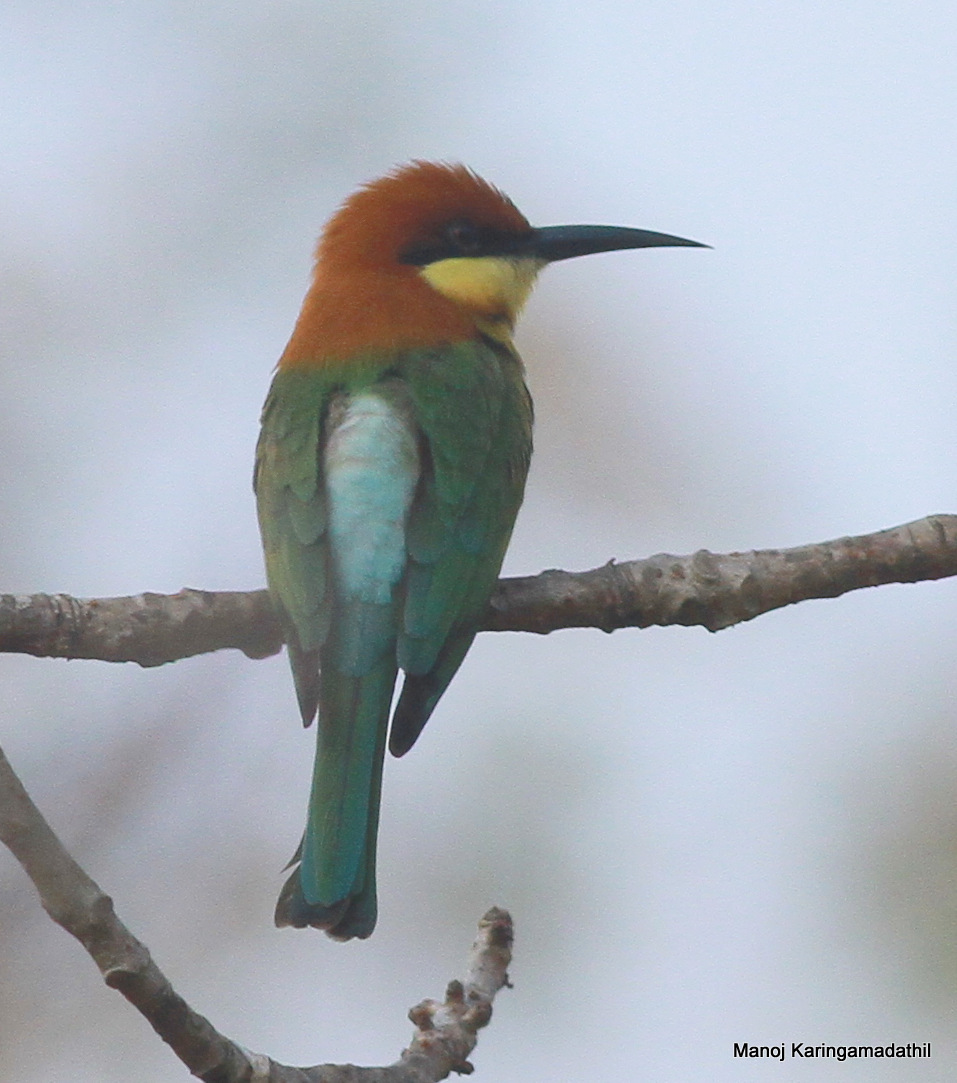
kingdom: Animalia
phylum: Chordata
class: Aves
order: Coraciiformes
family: Meropidae
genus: Merops
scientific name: Merops leschenaulti
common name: Chestnut-headed bee-eater
